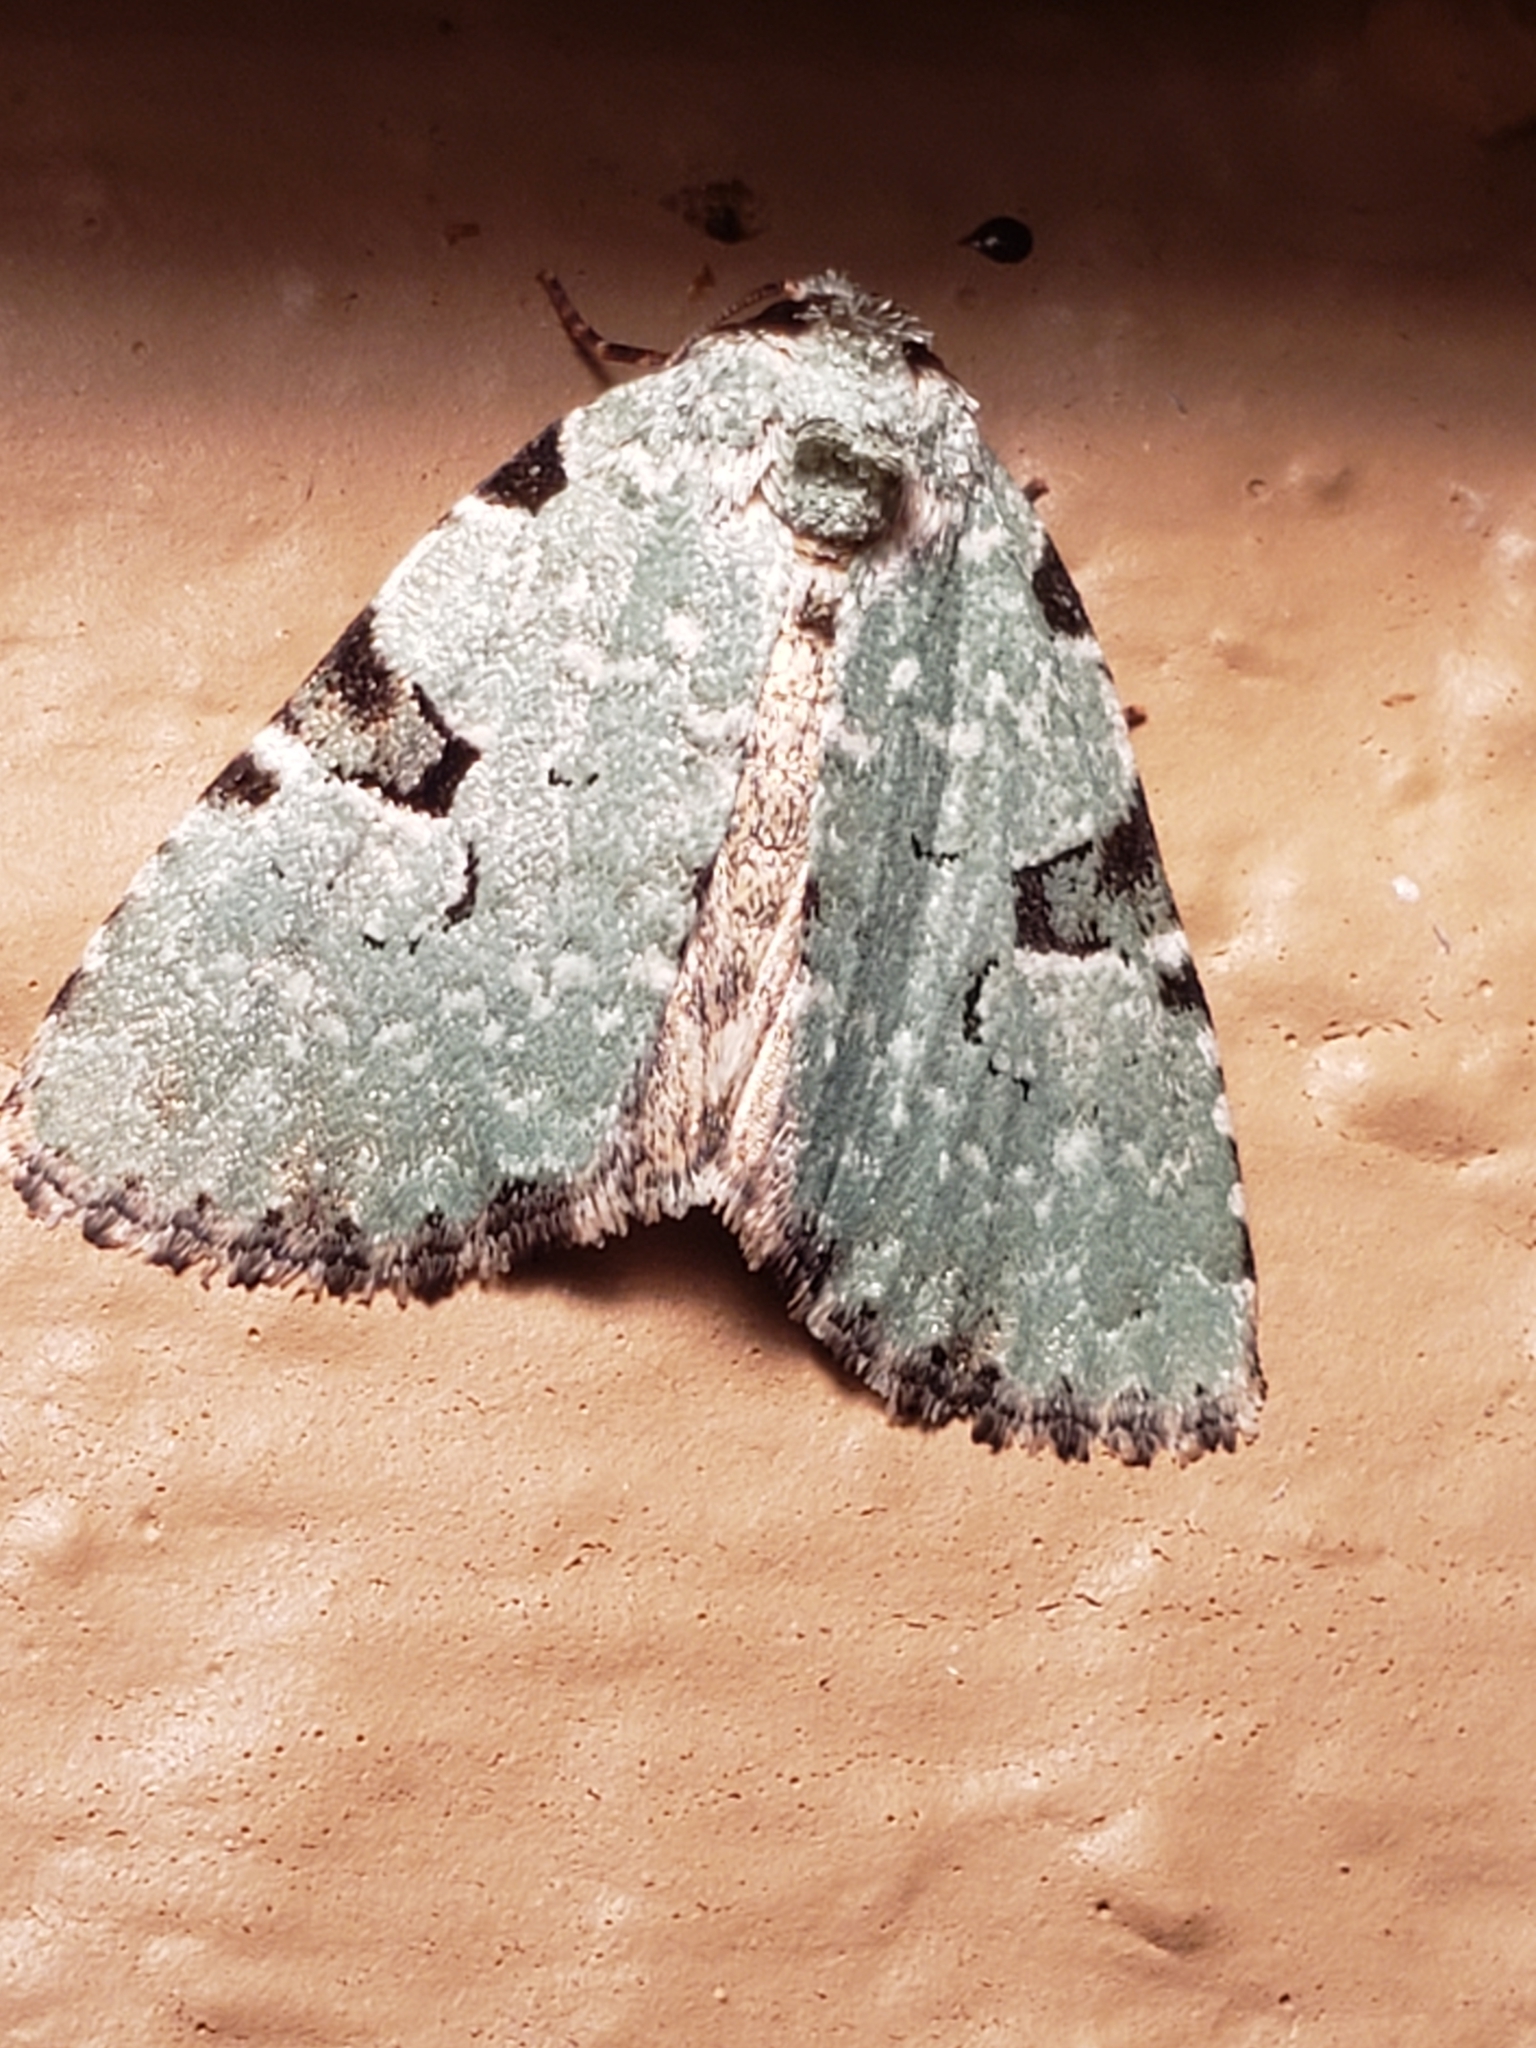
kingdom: Animalia
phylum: Arthropoda
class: Insecta
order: Lepidoptera
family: Noctuidae
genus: Leuconycta
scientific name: Leuconycta diphteroides
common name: Green leuconycta moth
